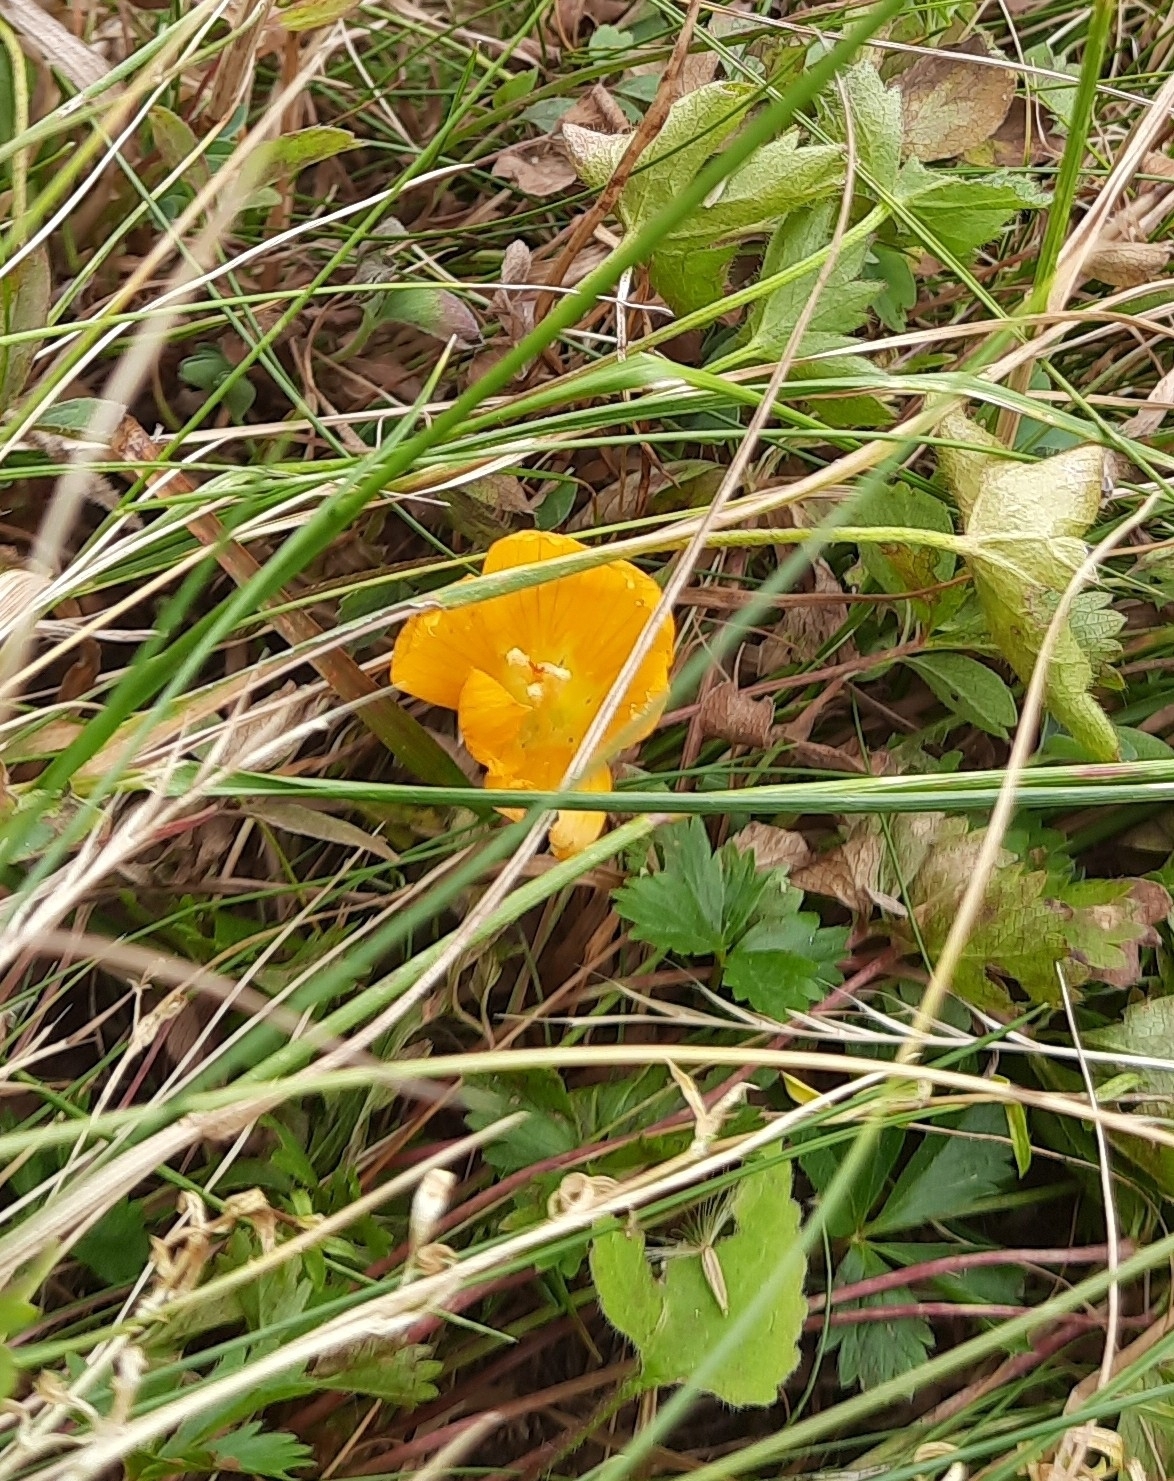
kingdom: Plantae
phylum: Tracheophyta
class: Liliopsida
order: Asparagales
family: Iridaceae
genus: Crocus
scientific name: Crocus scharojanii
